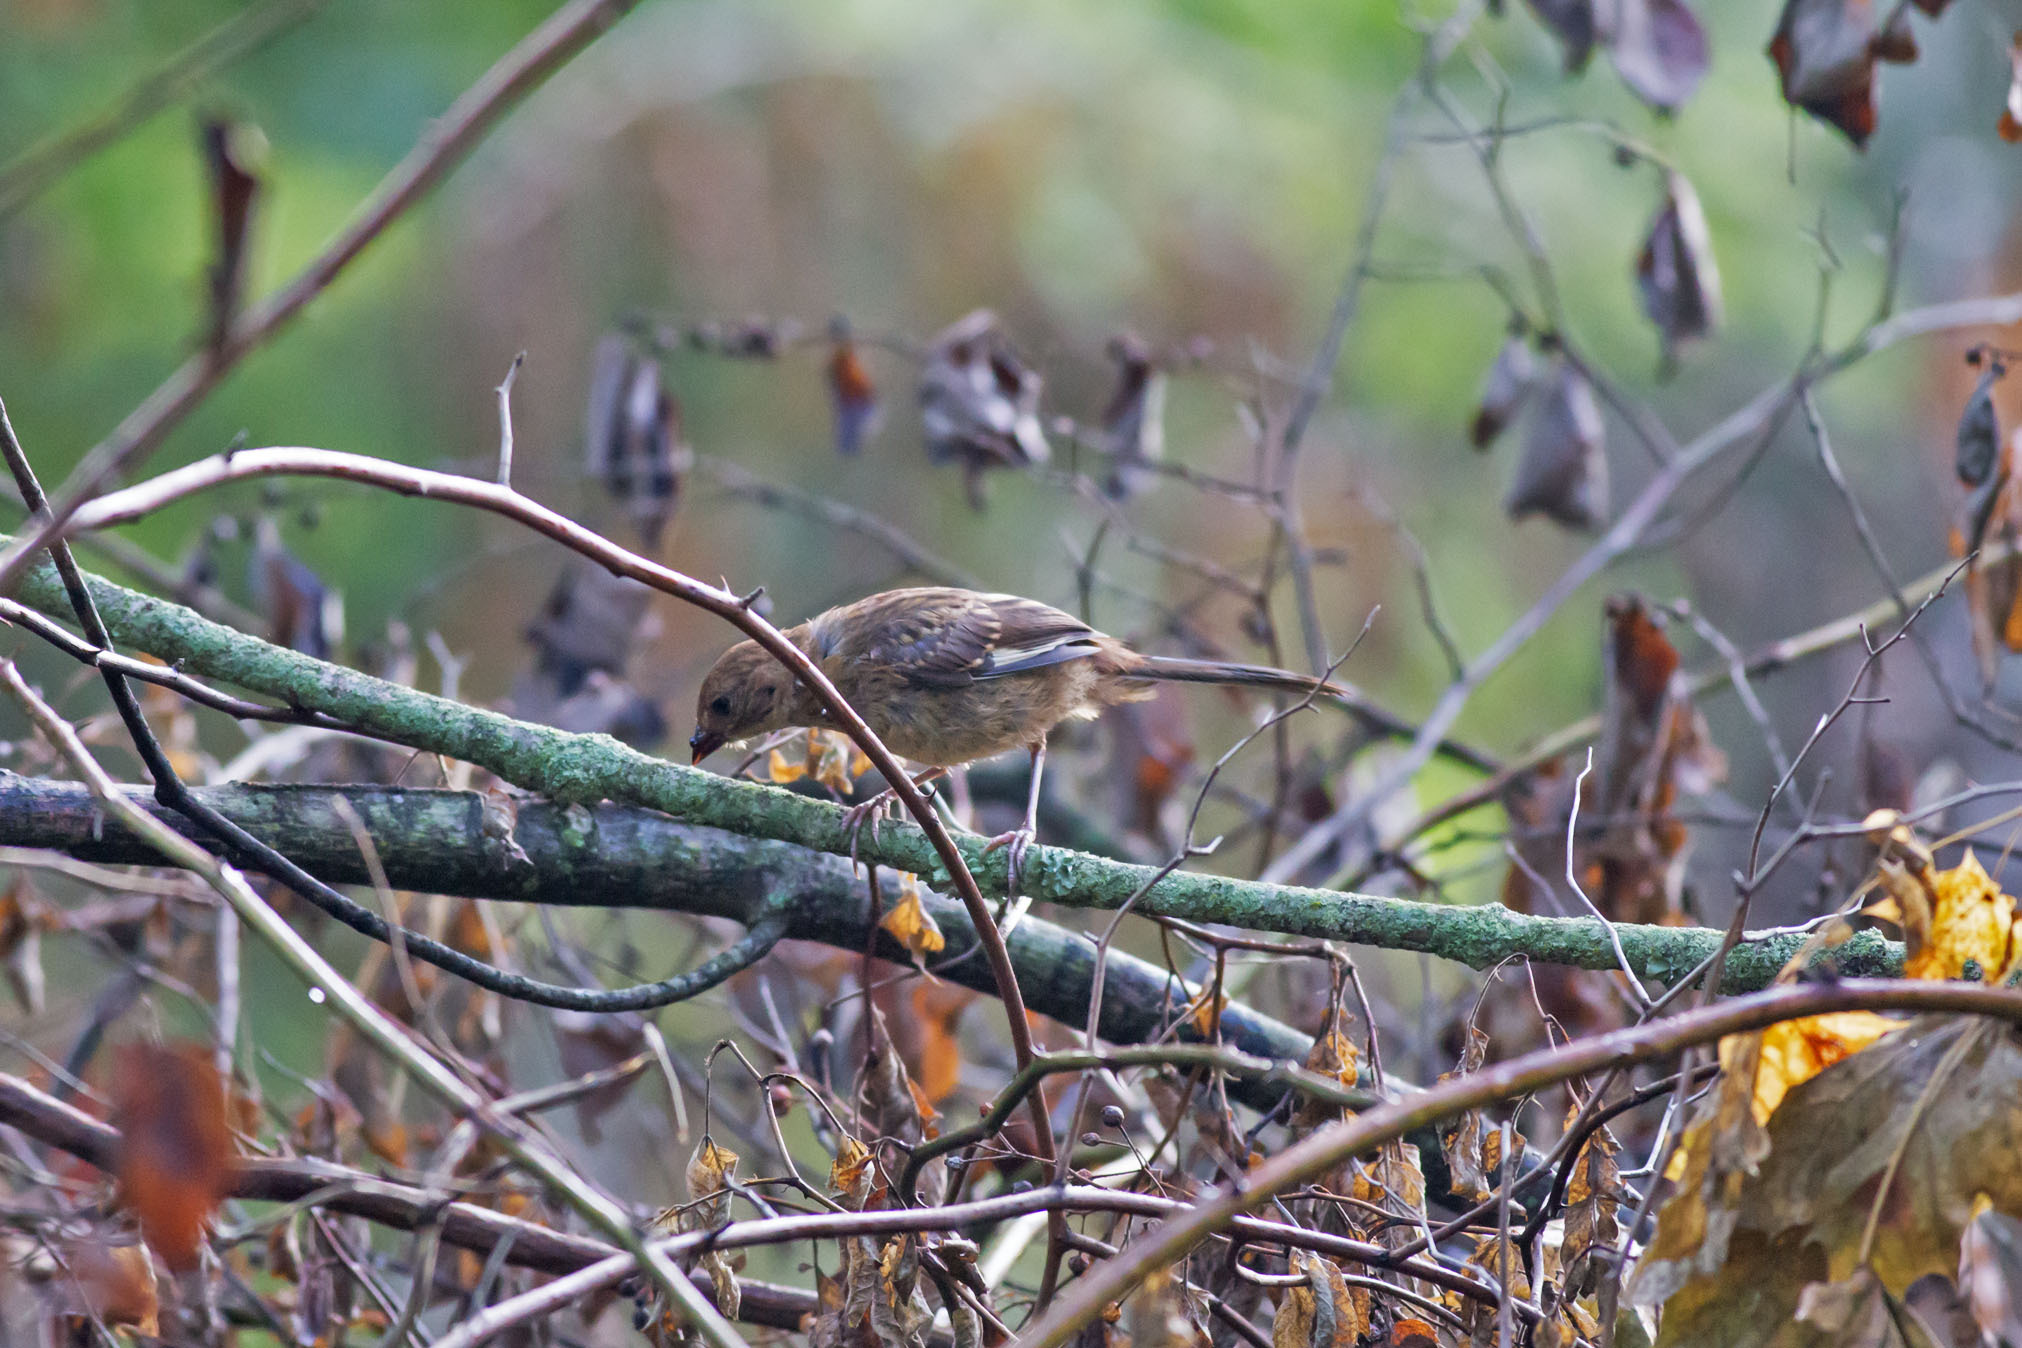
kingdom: Animalia
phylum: Chordata
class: Aves
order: Passeriformes
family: Passerellidae
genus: Pipilo
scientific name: Pipilo erythrophthalmus
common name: Eastern towhee
